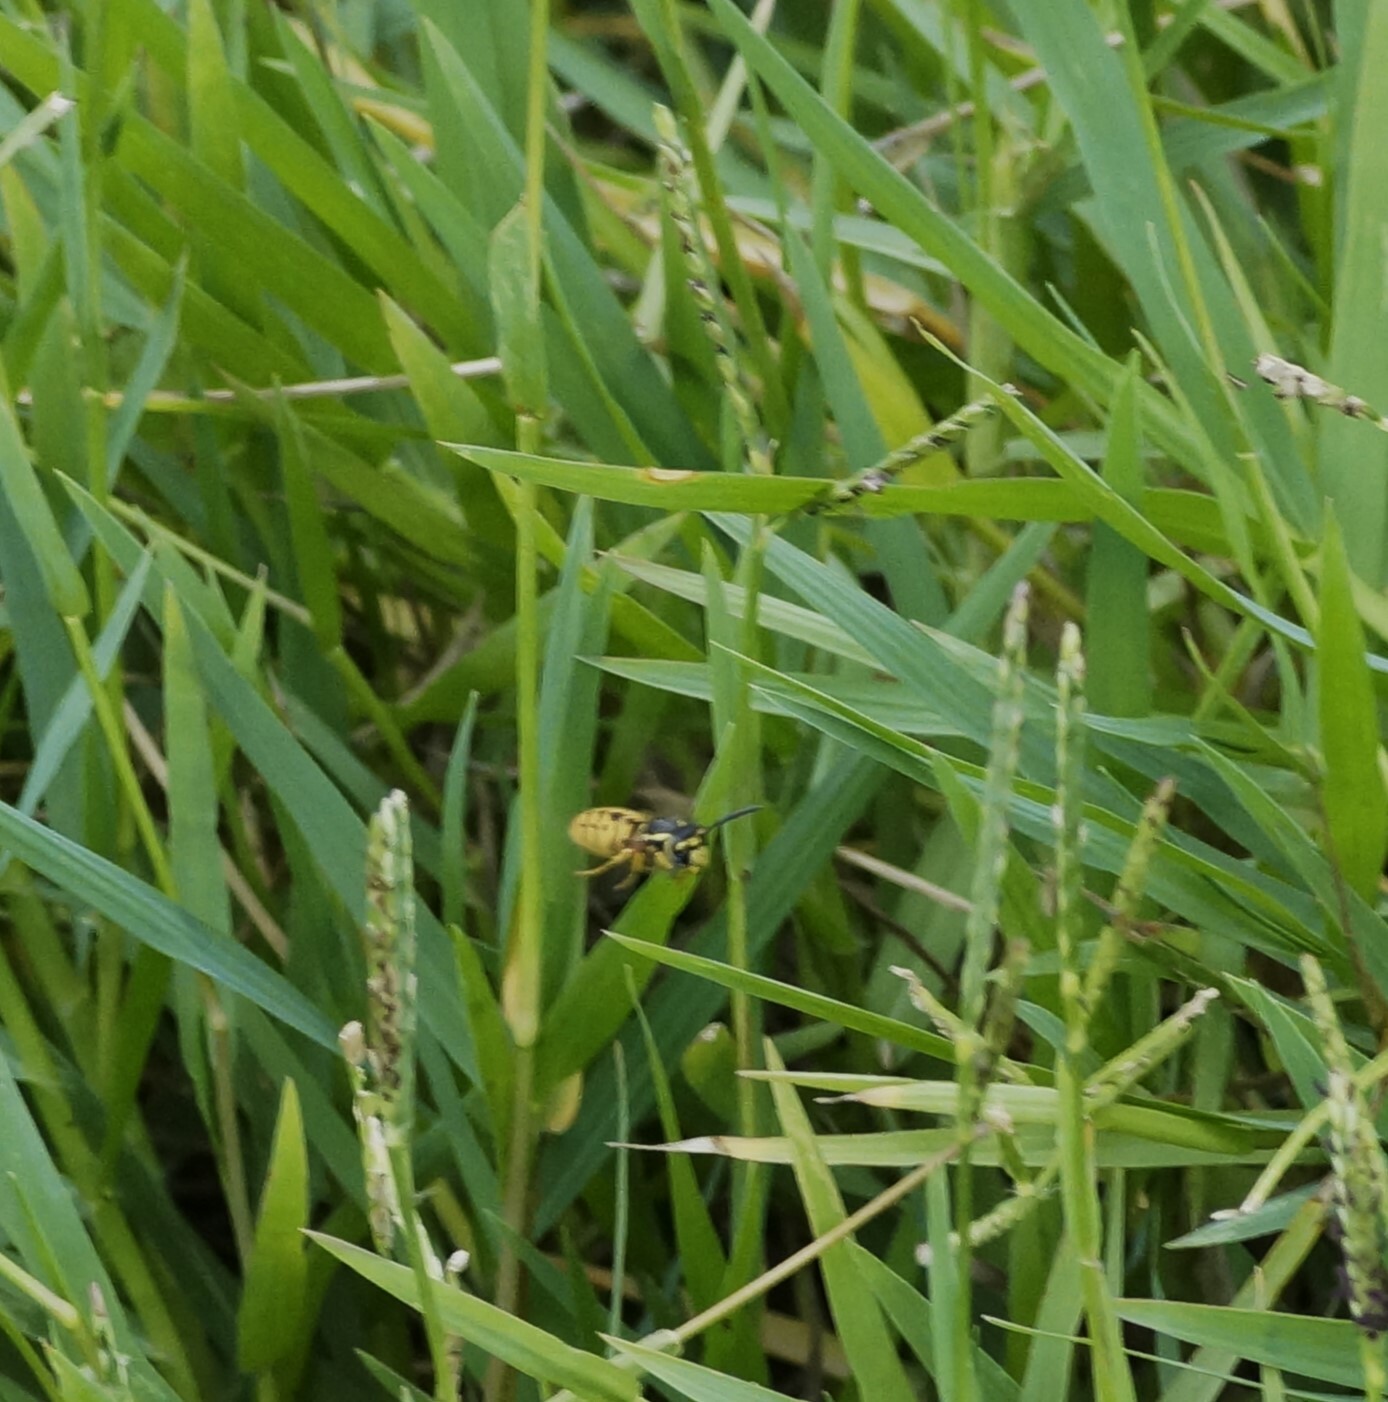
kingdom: Animalia
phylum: Arthropoda
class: Insecta
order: Hymenoptera
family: Vespidae
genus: Vespula
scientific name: Vespula germanica
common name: German wasp
